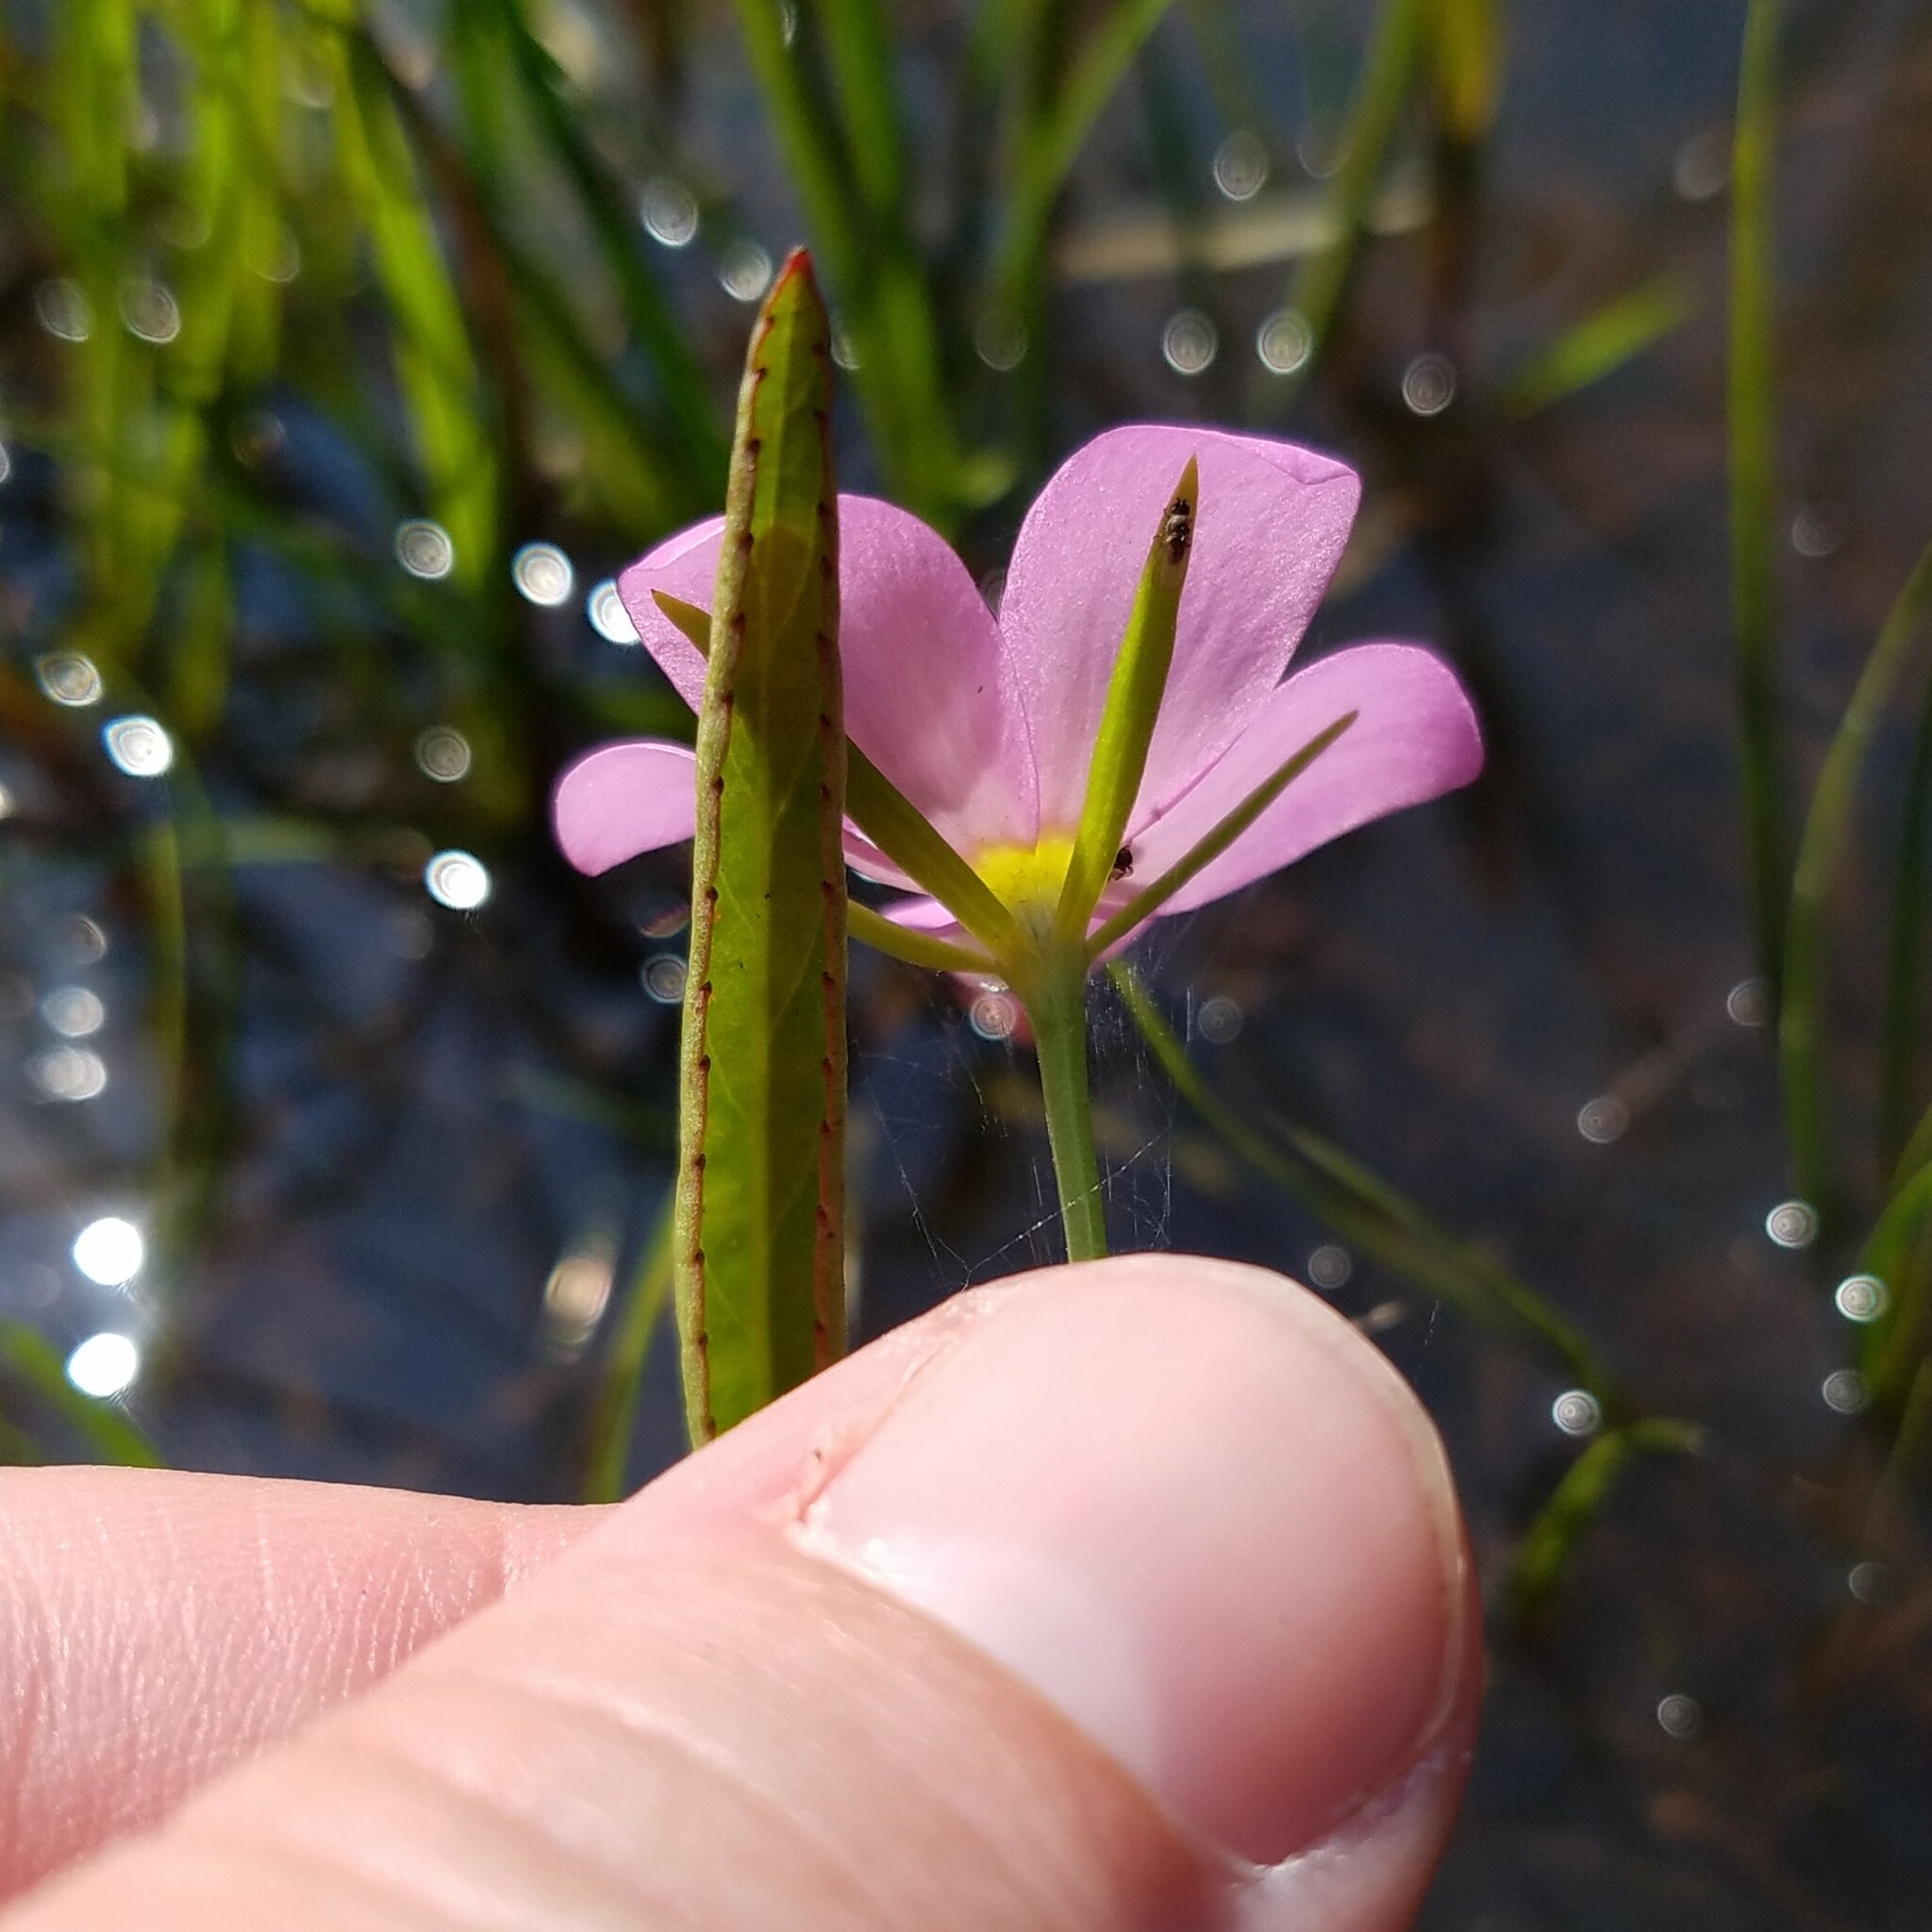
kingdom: Plantae
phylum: Tracheophyta
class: Magnoliopsida
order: Gentianales
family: Gentianaceae
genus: Sabatia
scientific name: Sabatia campanulata
